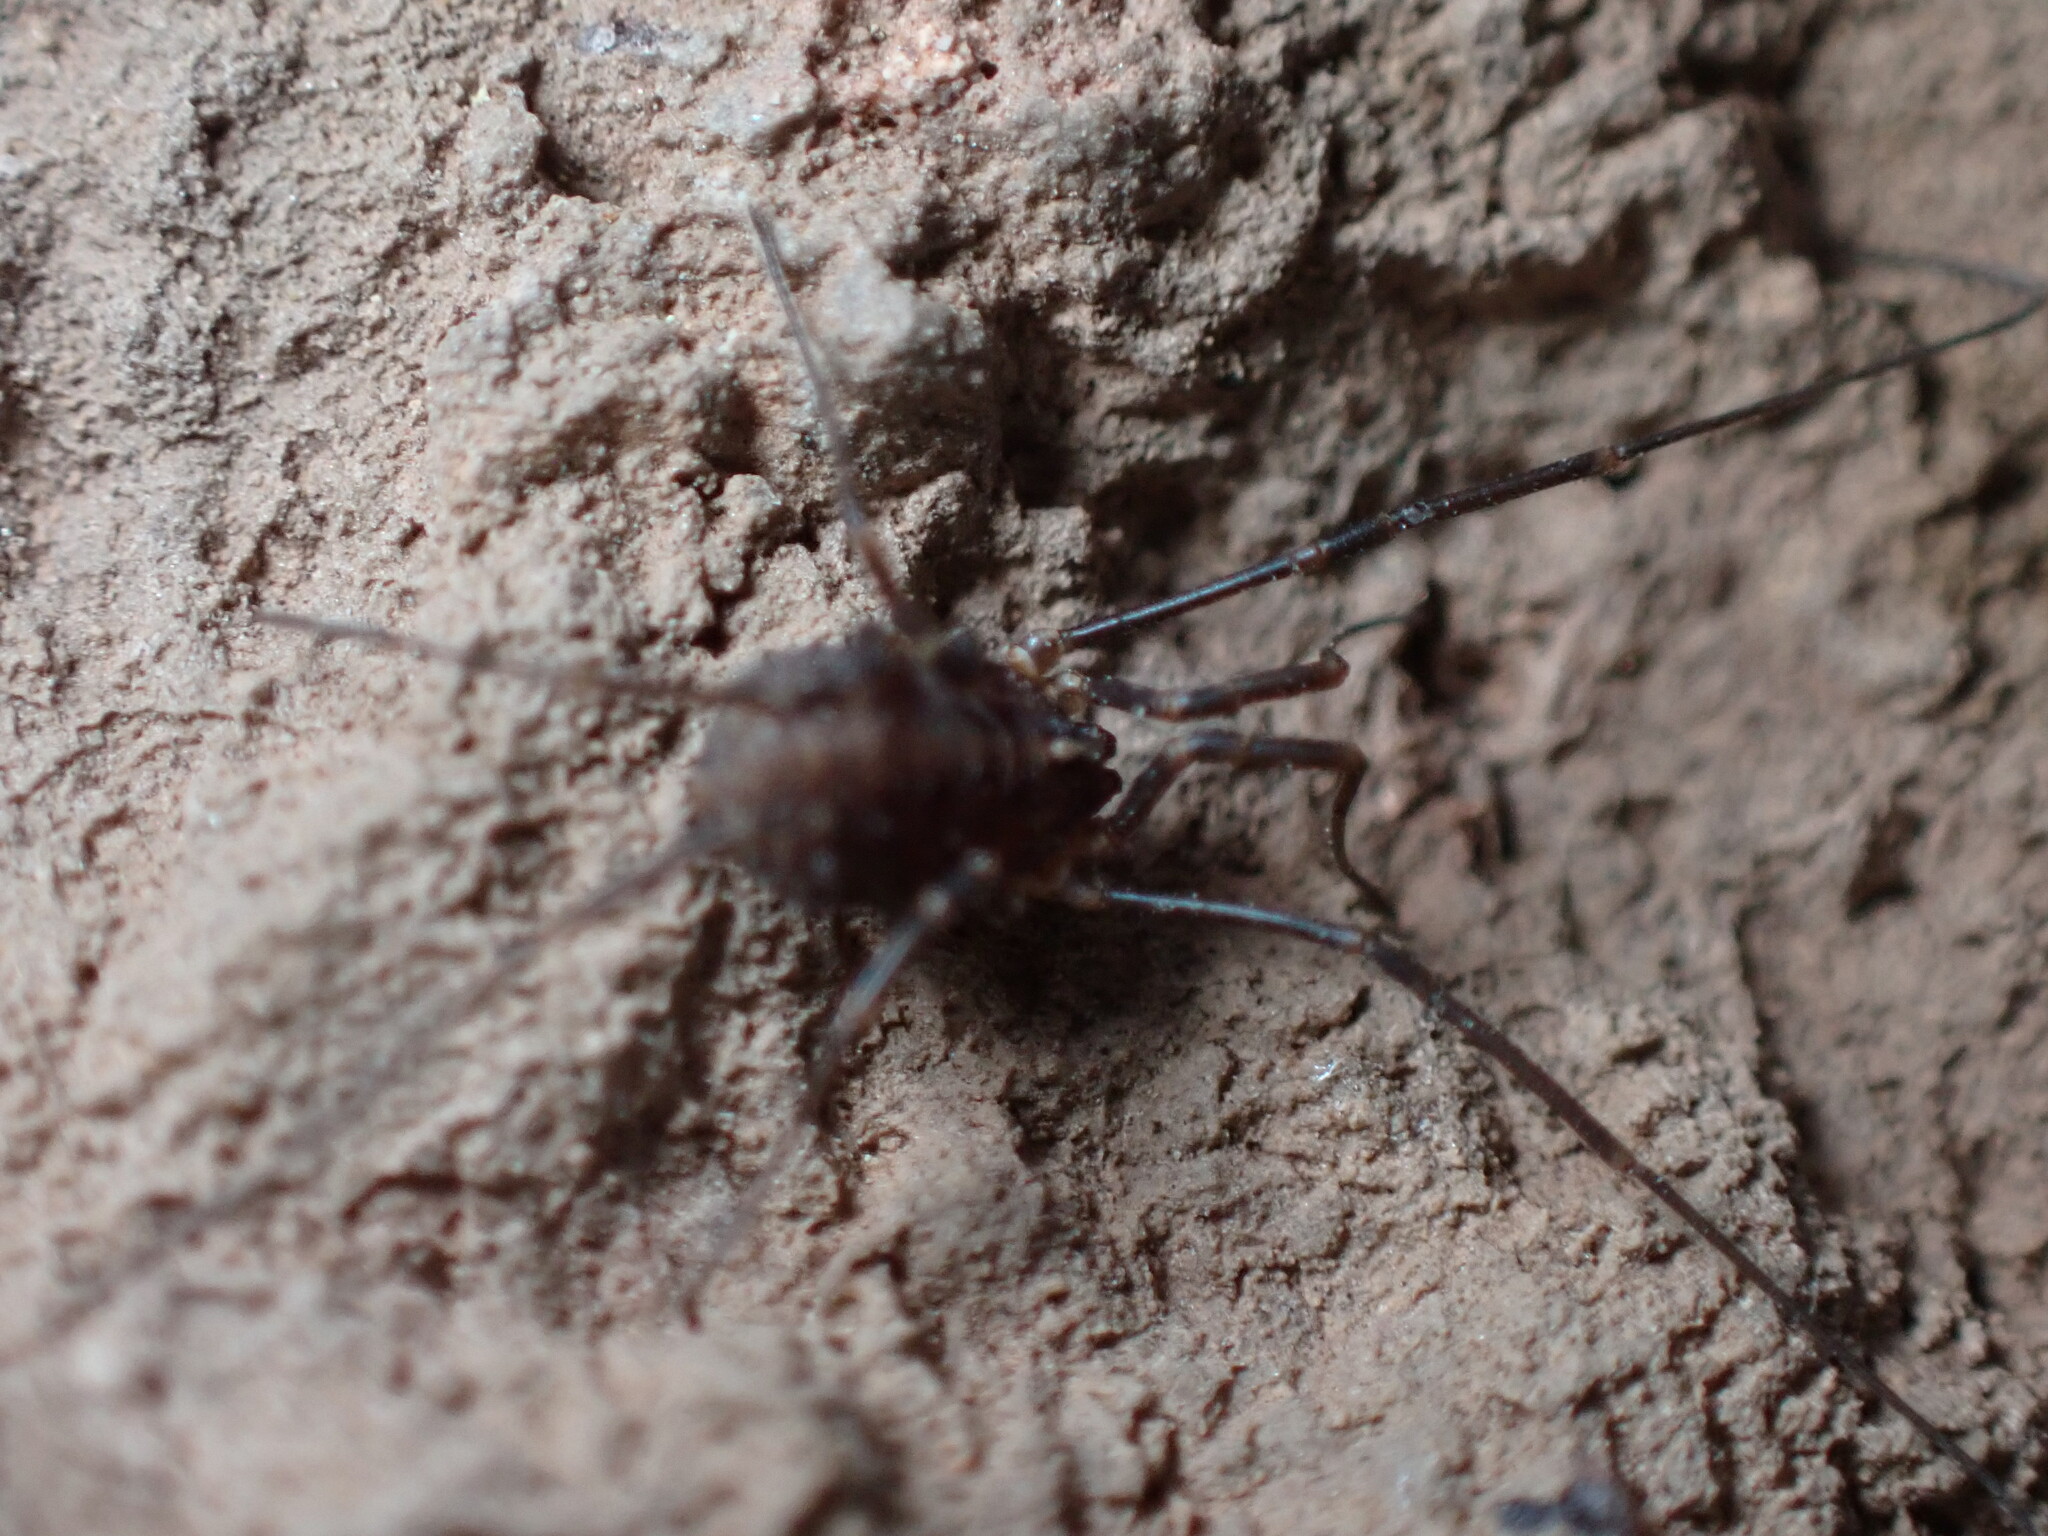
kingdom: Animalia
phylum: Arthropoda
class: Arachnida
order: Opiliones
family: Sclerosomatidae
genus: Togwoteeus
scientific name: Togwoteeus biceps
